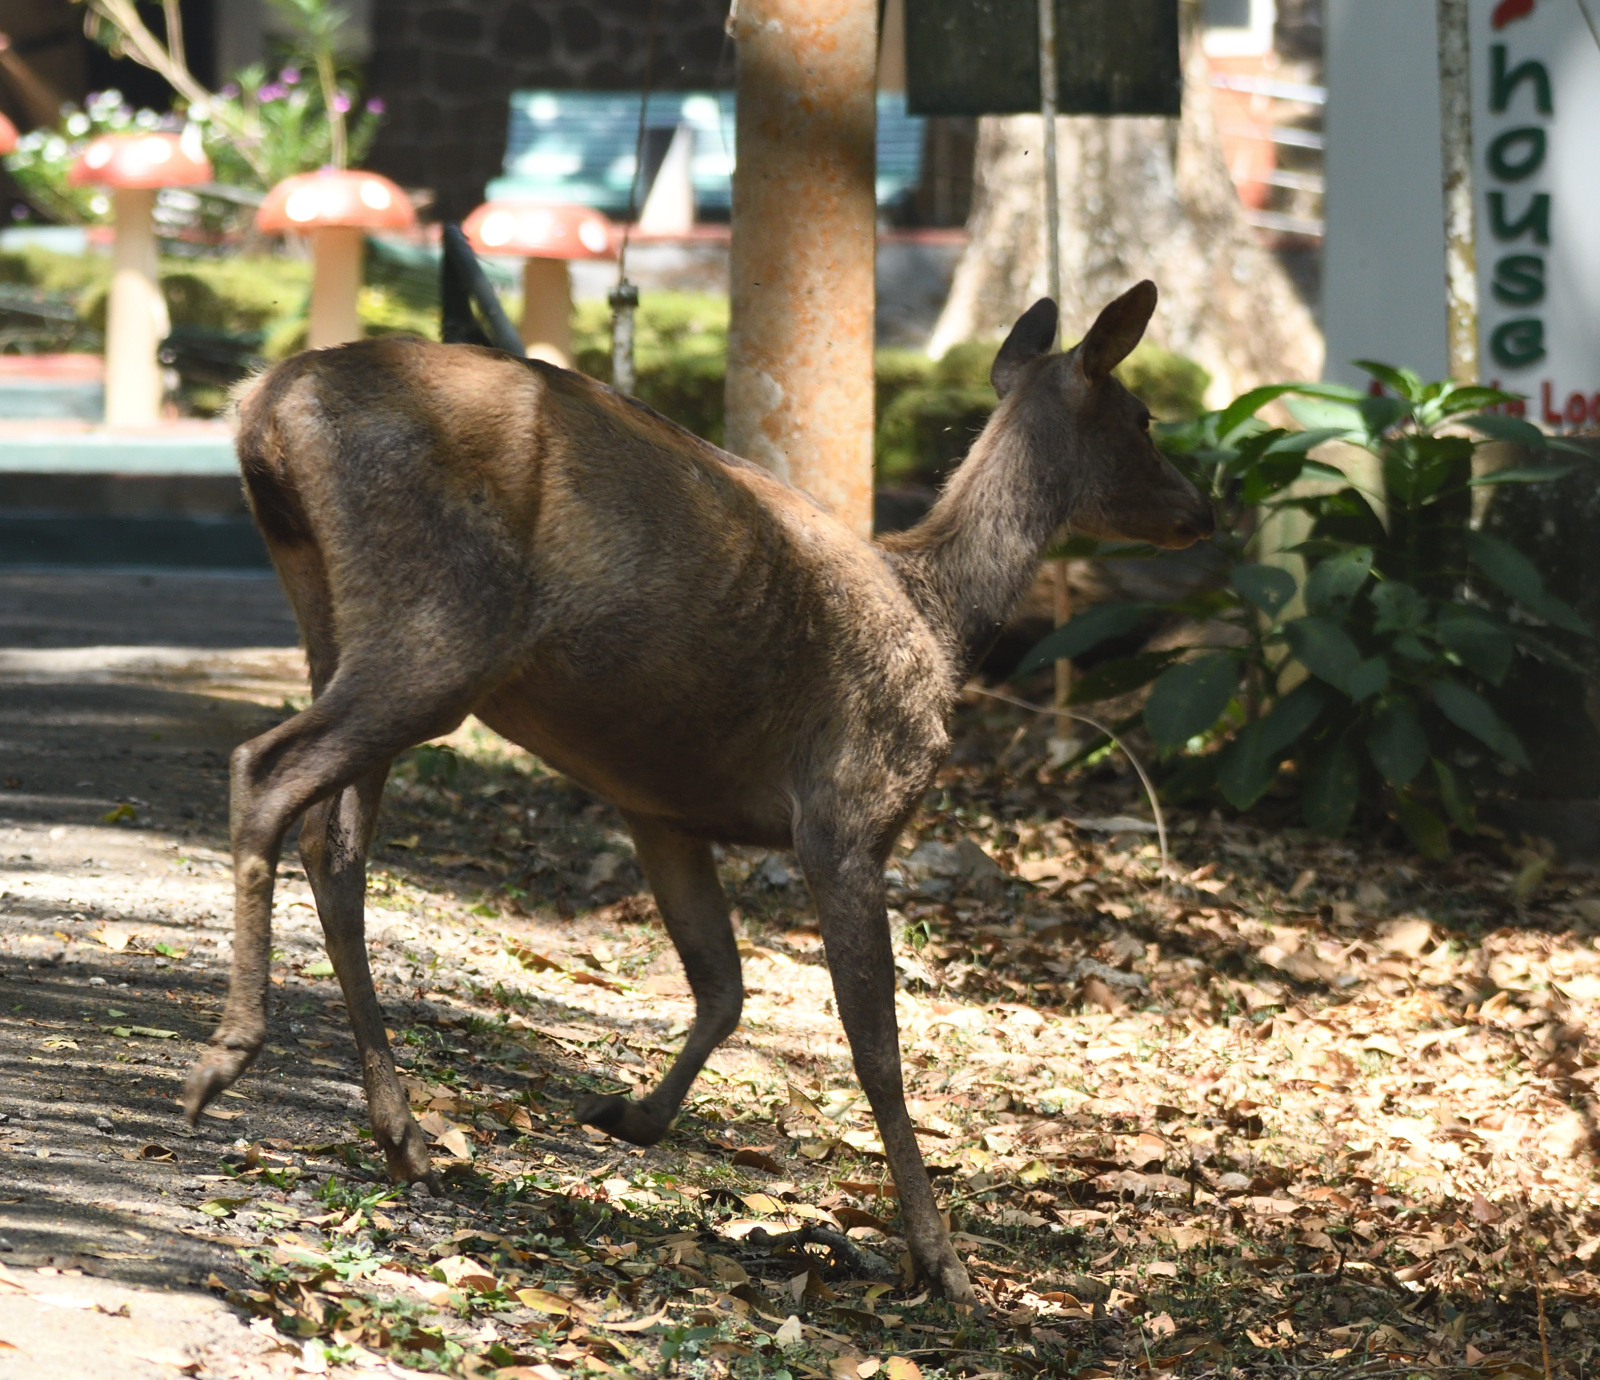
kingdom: Animalia
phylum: Chordata
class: Mammalia
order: Artiodactyla
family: Cervidae
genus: Rusa
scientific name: Rusa unicolor
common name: Sambar
